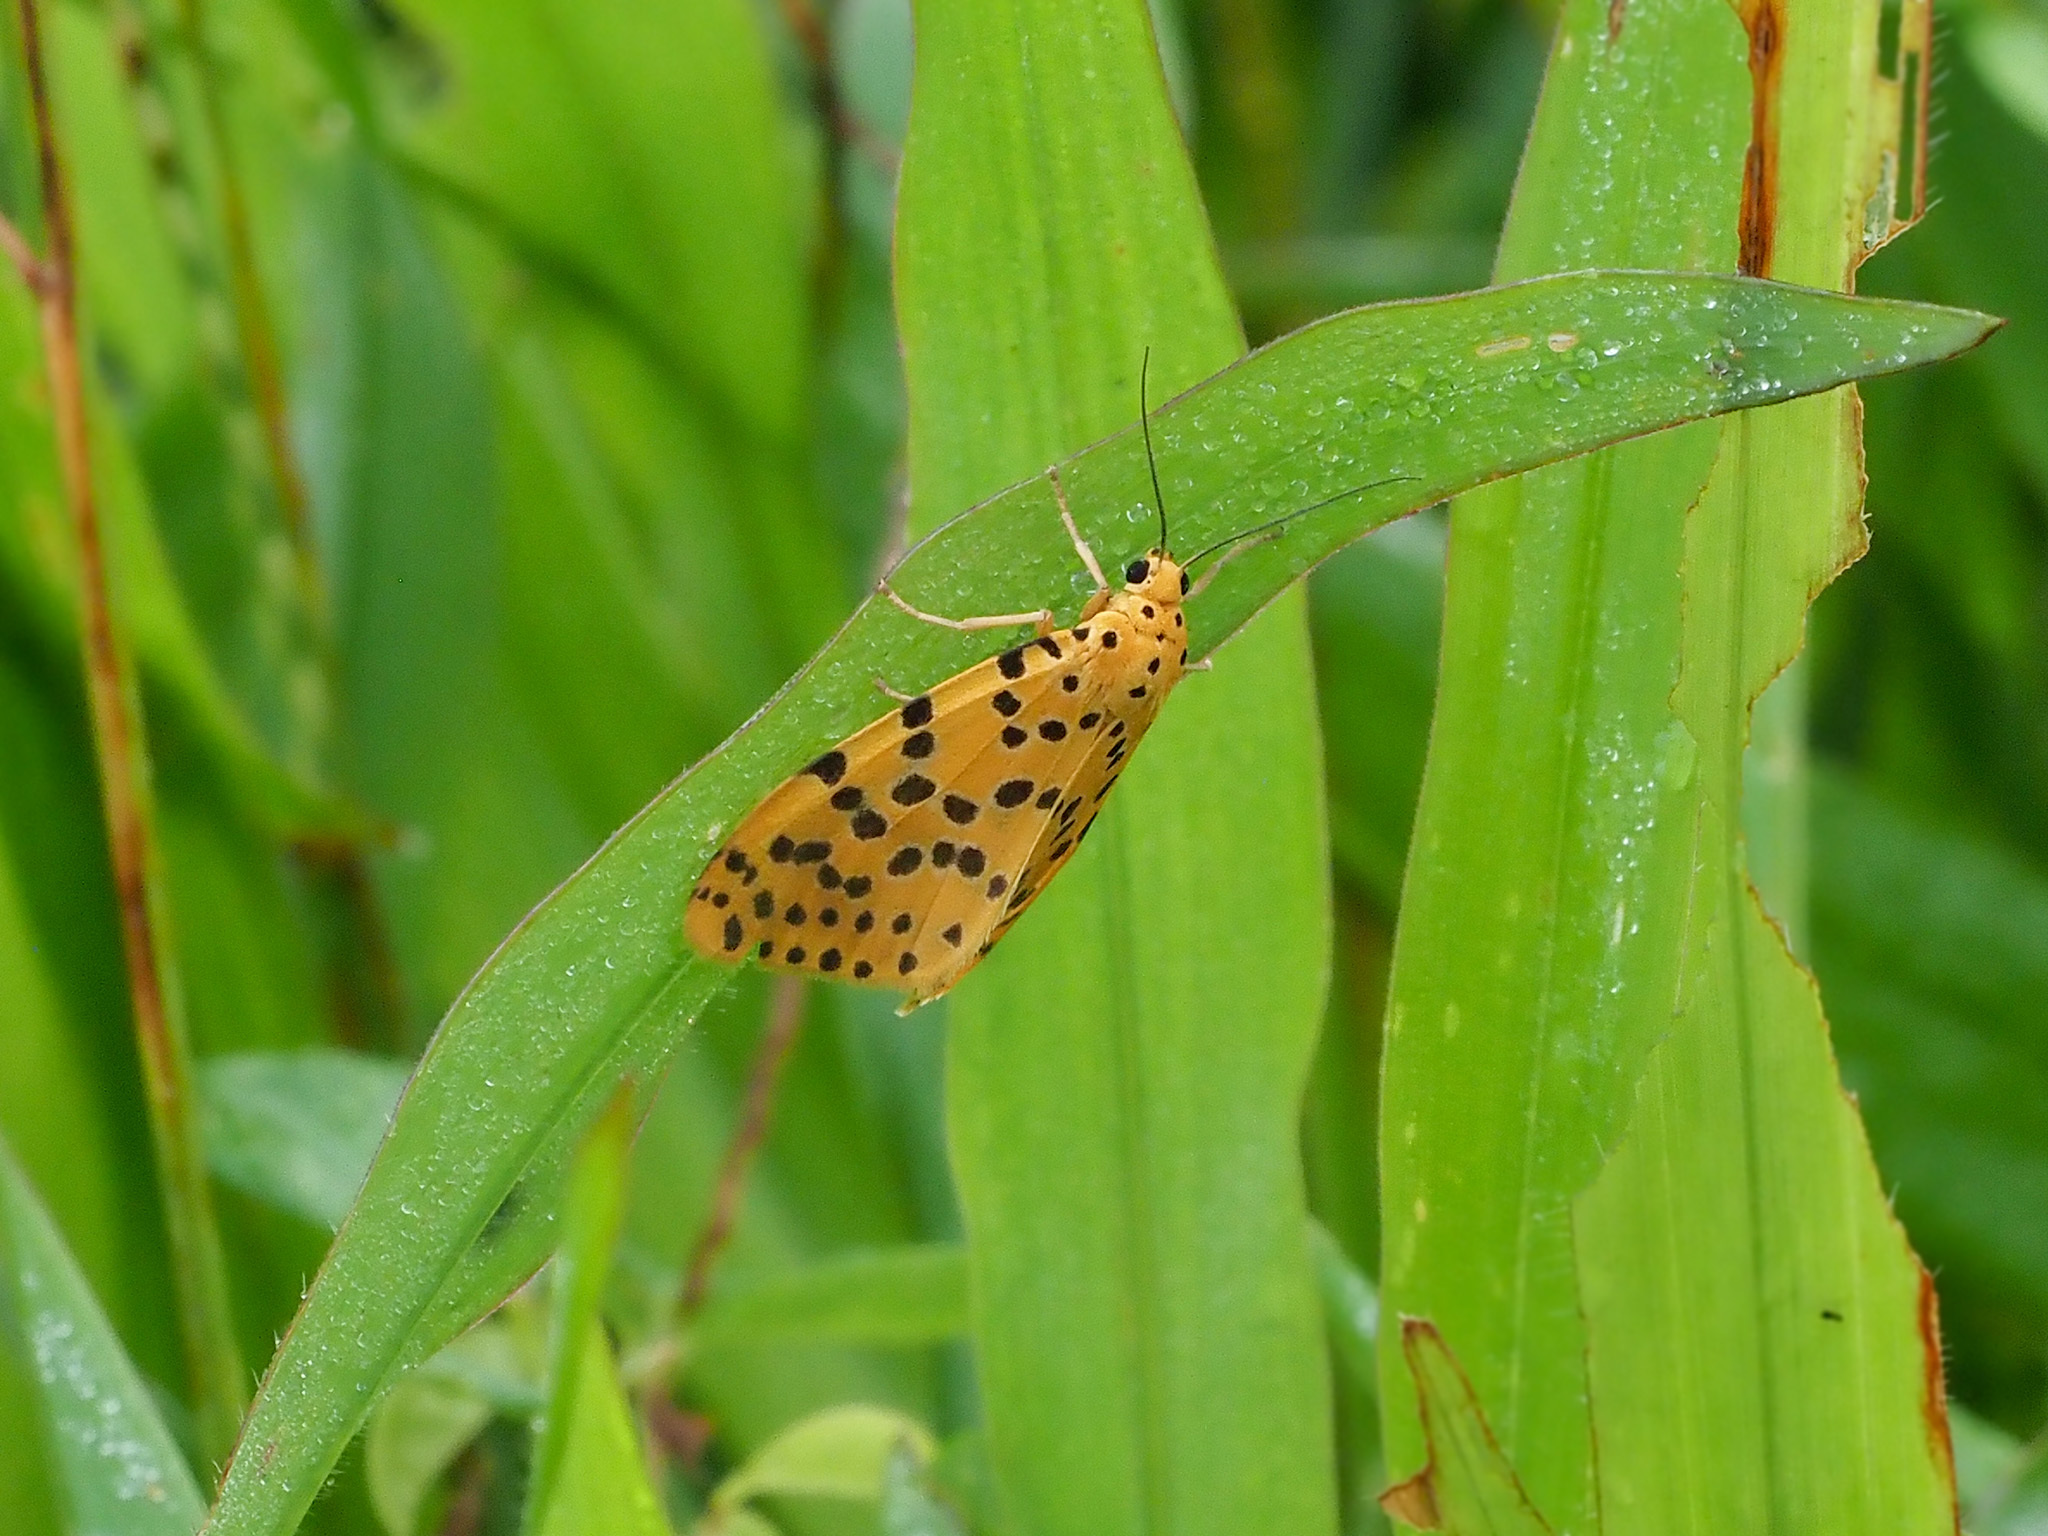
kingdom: Animalia
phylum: Arthropoda
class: Insecta
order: Lepidoptera
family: Erebidae
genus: Argina
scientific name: Argina astrea
